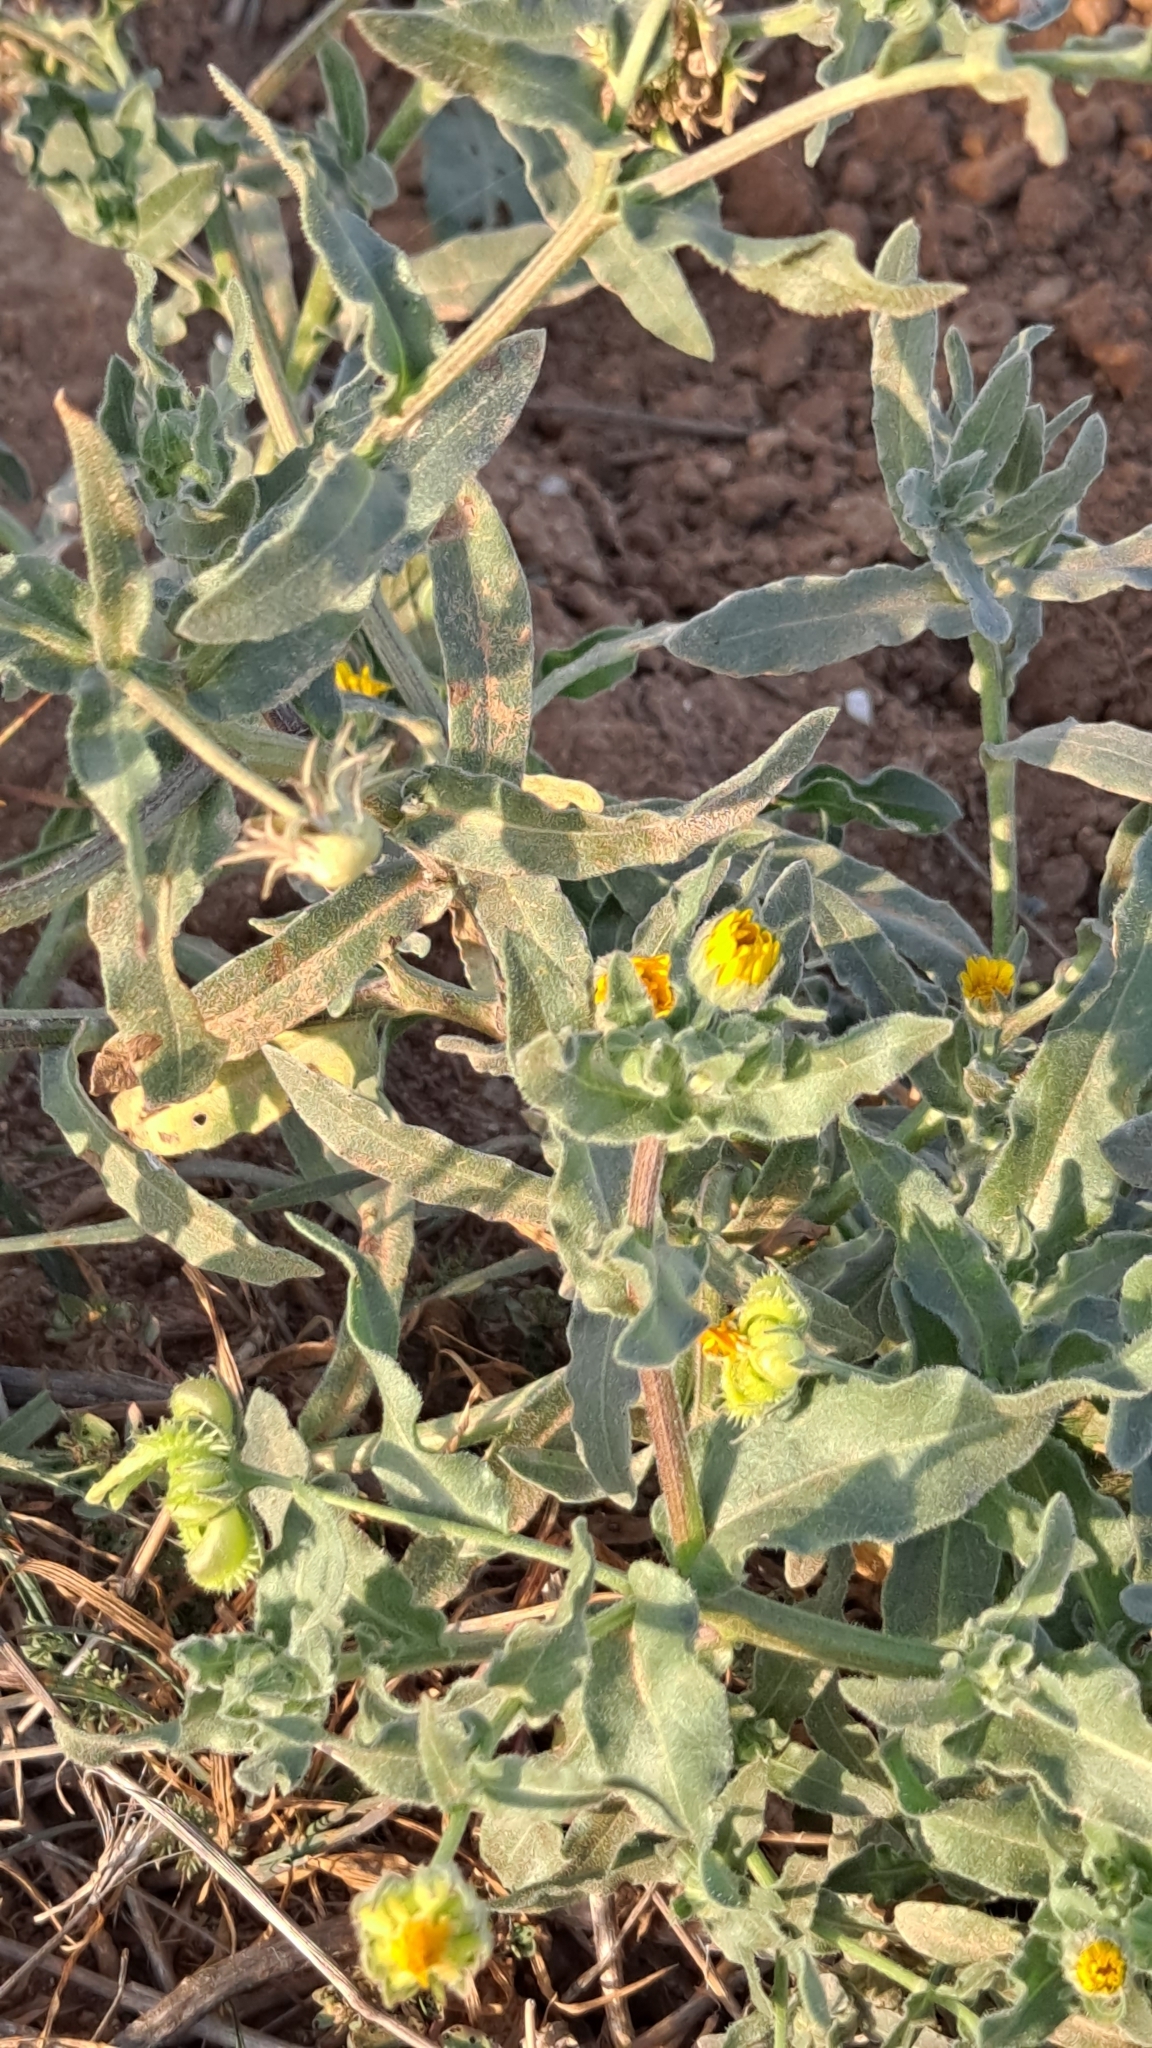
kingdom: Plantae
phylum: Tracheophyta
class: Magnoliopsida
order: Asterales
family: Asteraceae
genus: Calendula
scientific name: Calendula arvensis
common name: Field marigold
